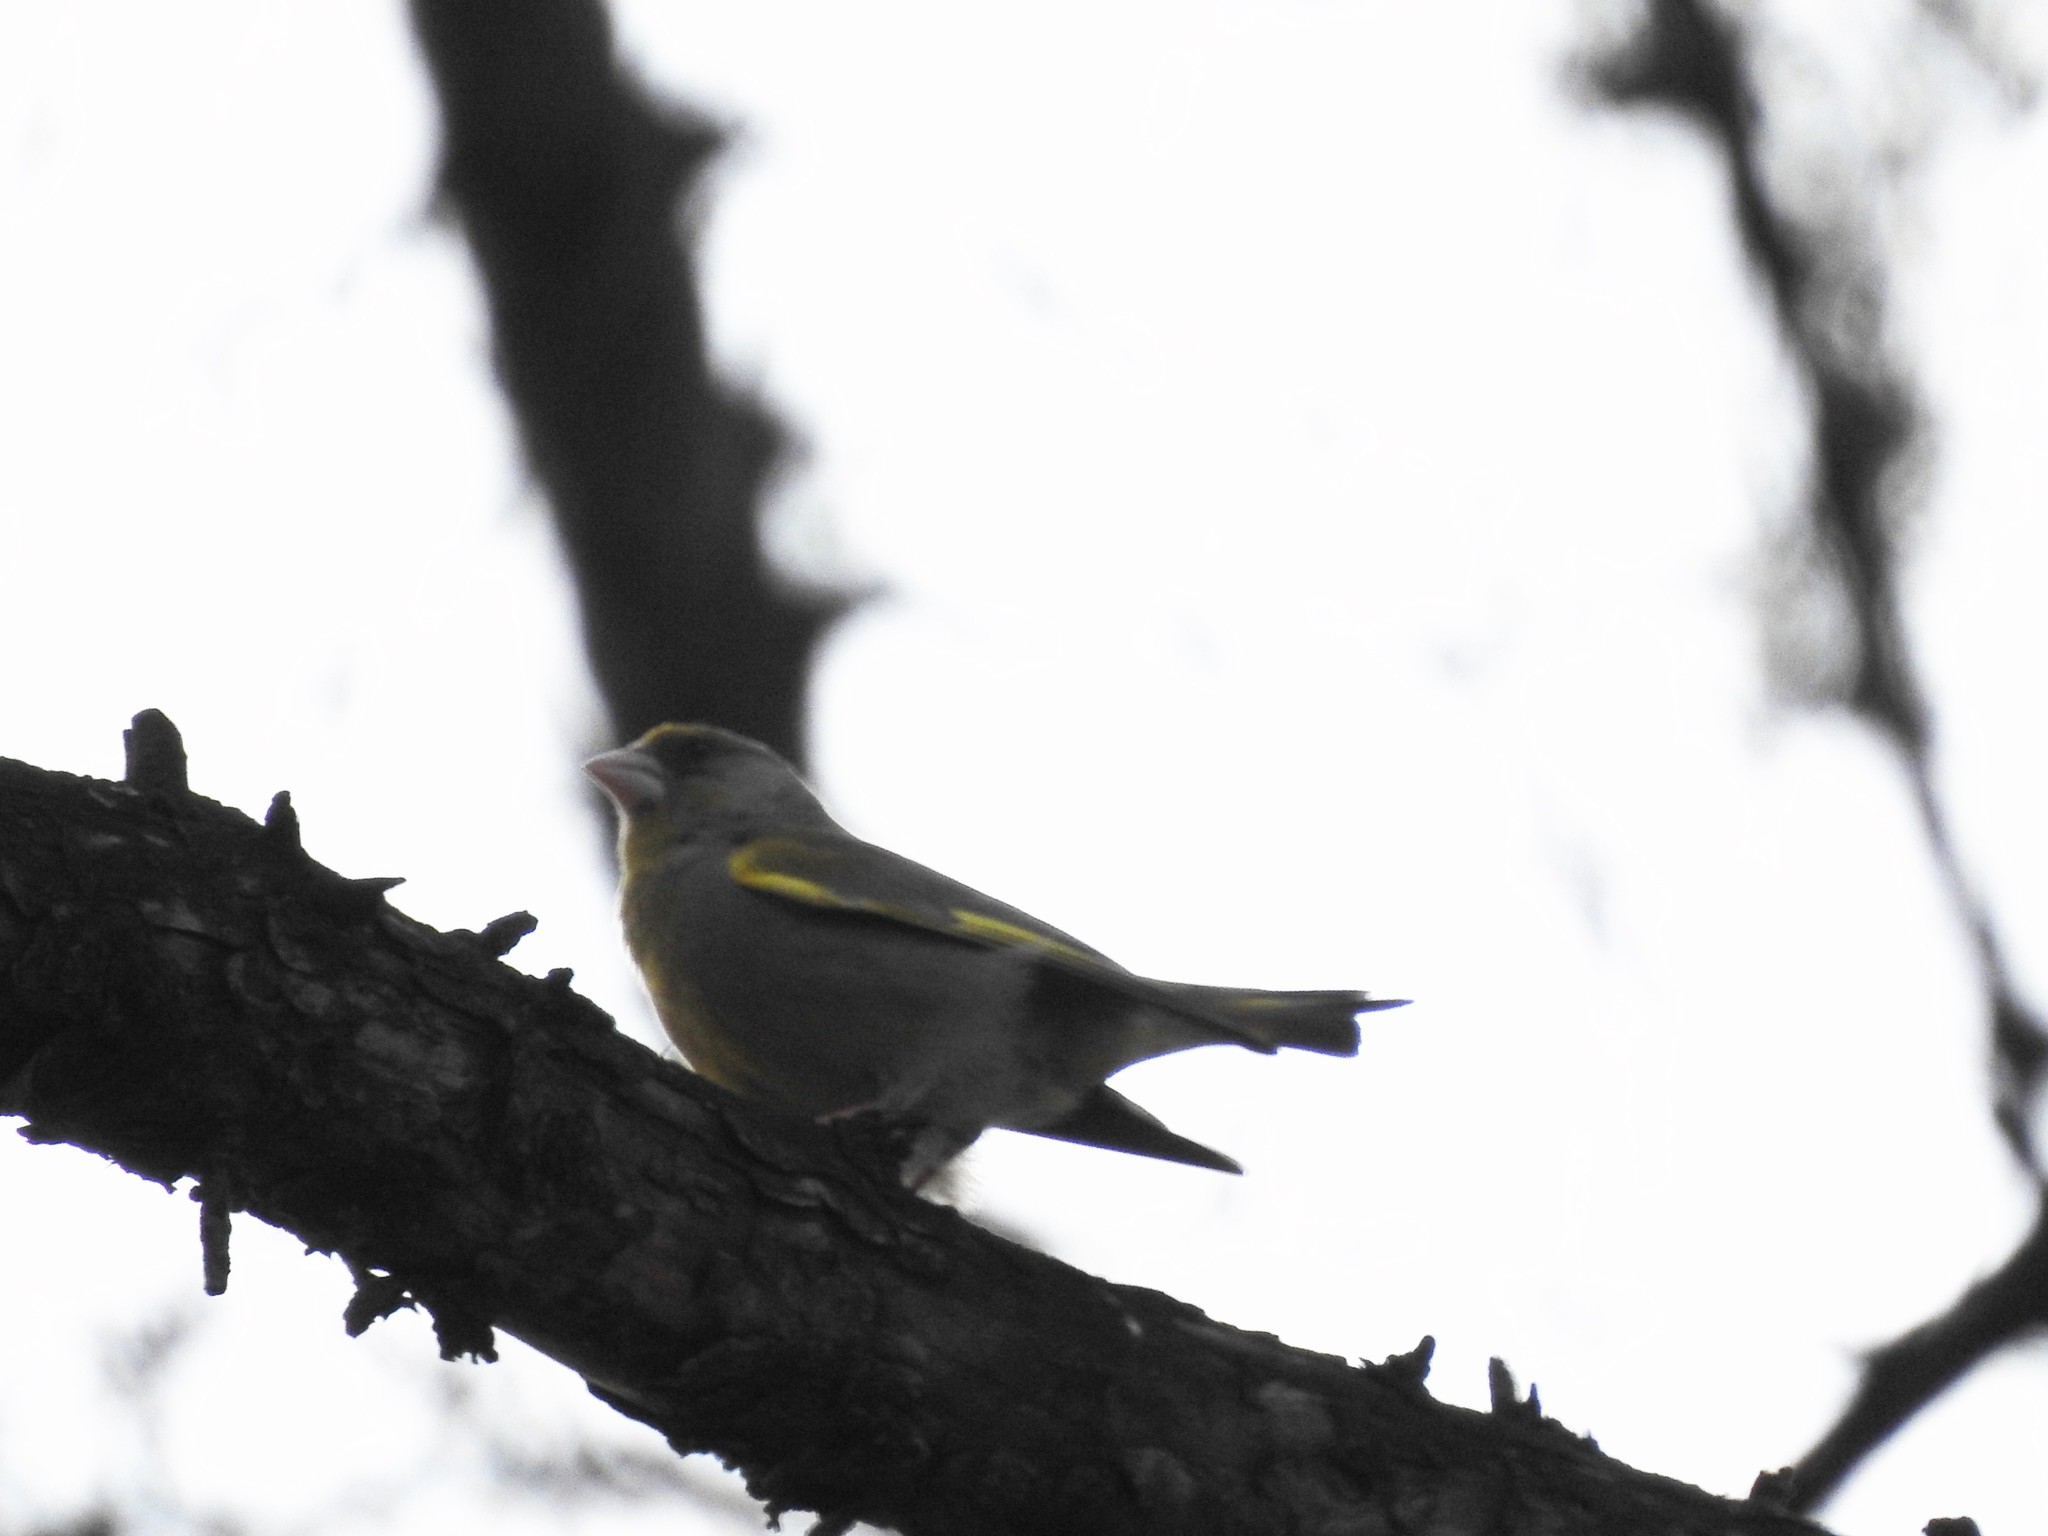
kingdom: Plantae
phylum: Tracheophyta
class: Liliopsida
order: Poales
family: Poaceae
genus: Chloris
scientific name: Chloris chloris
